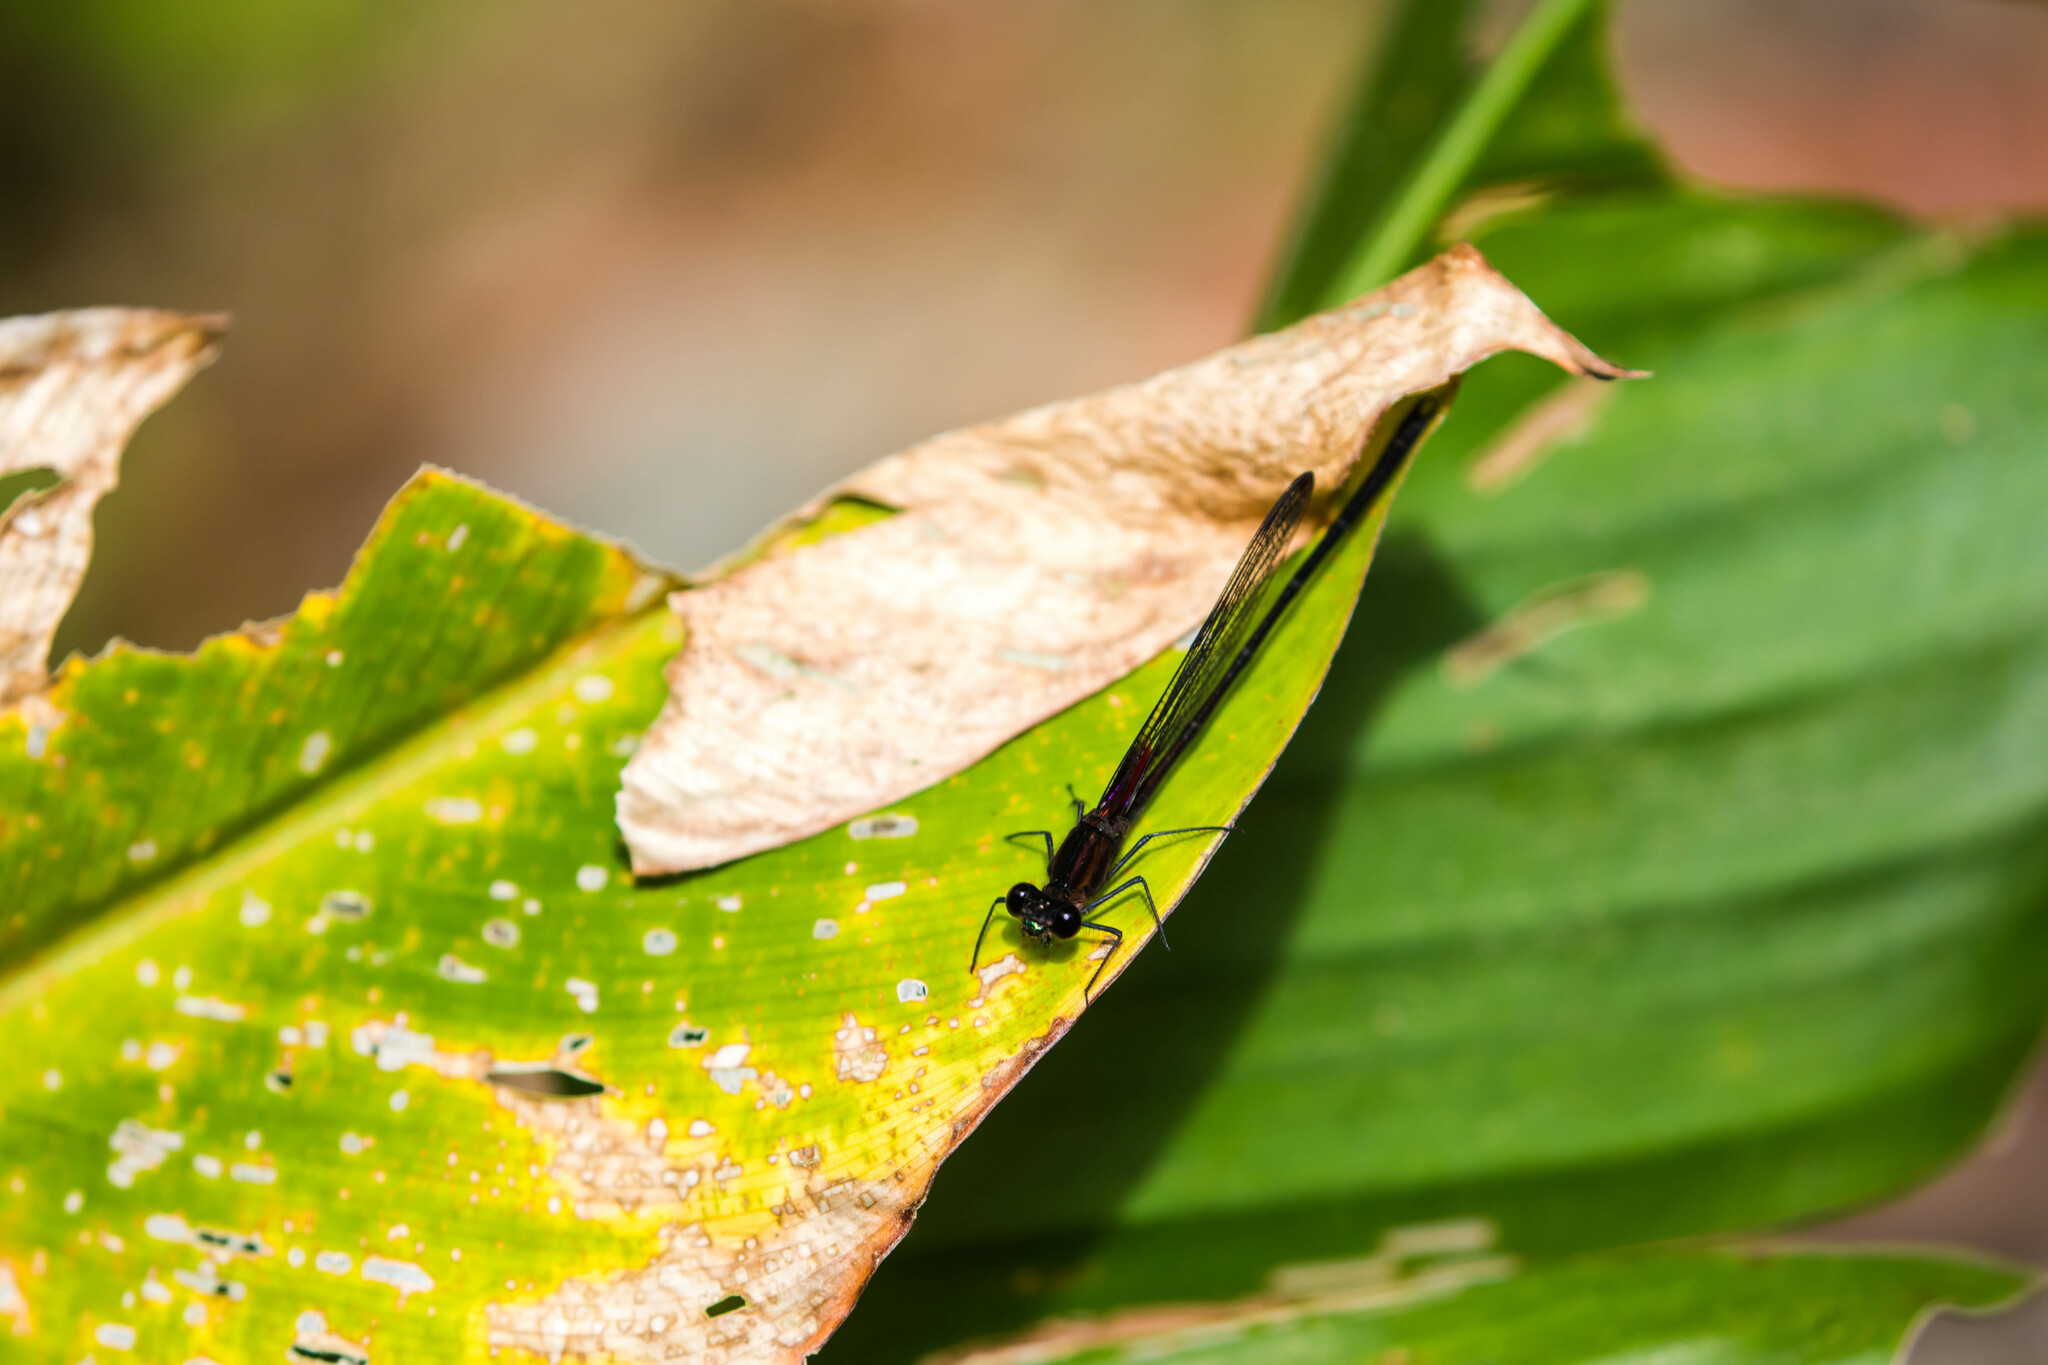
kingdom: Animalia
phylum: Arthropoda
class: Insecta
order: Odonata
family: Calopterygidae
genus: Hetaerina
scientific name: Hetaerina cruentata
